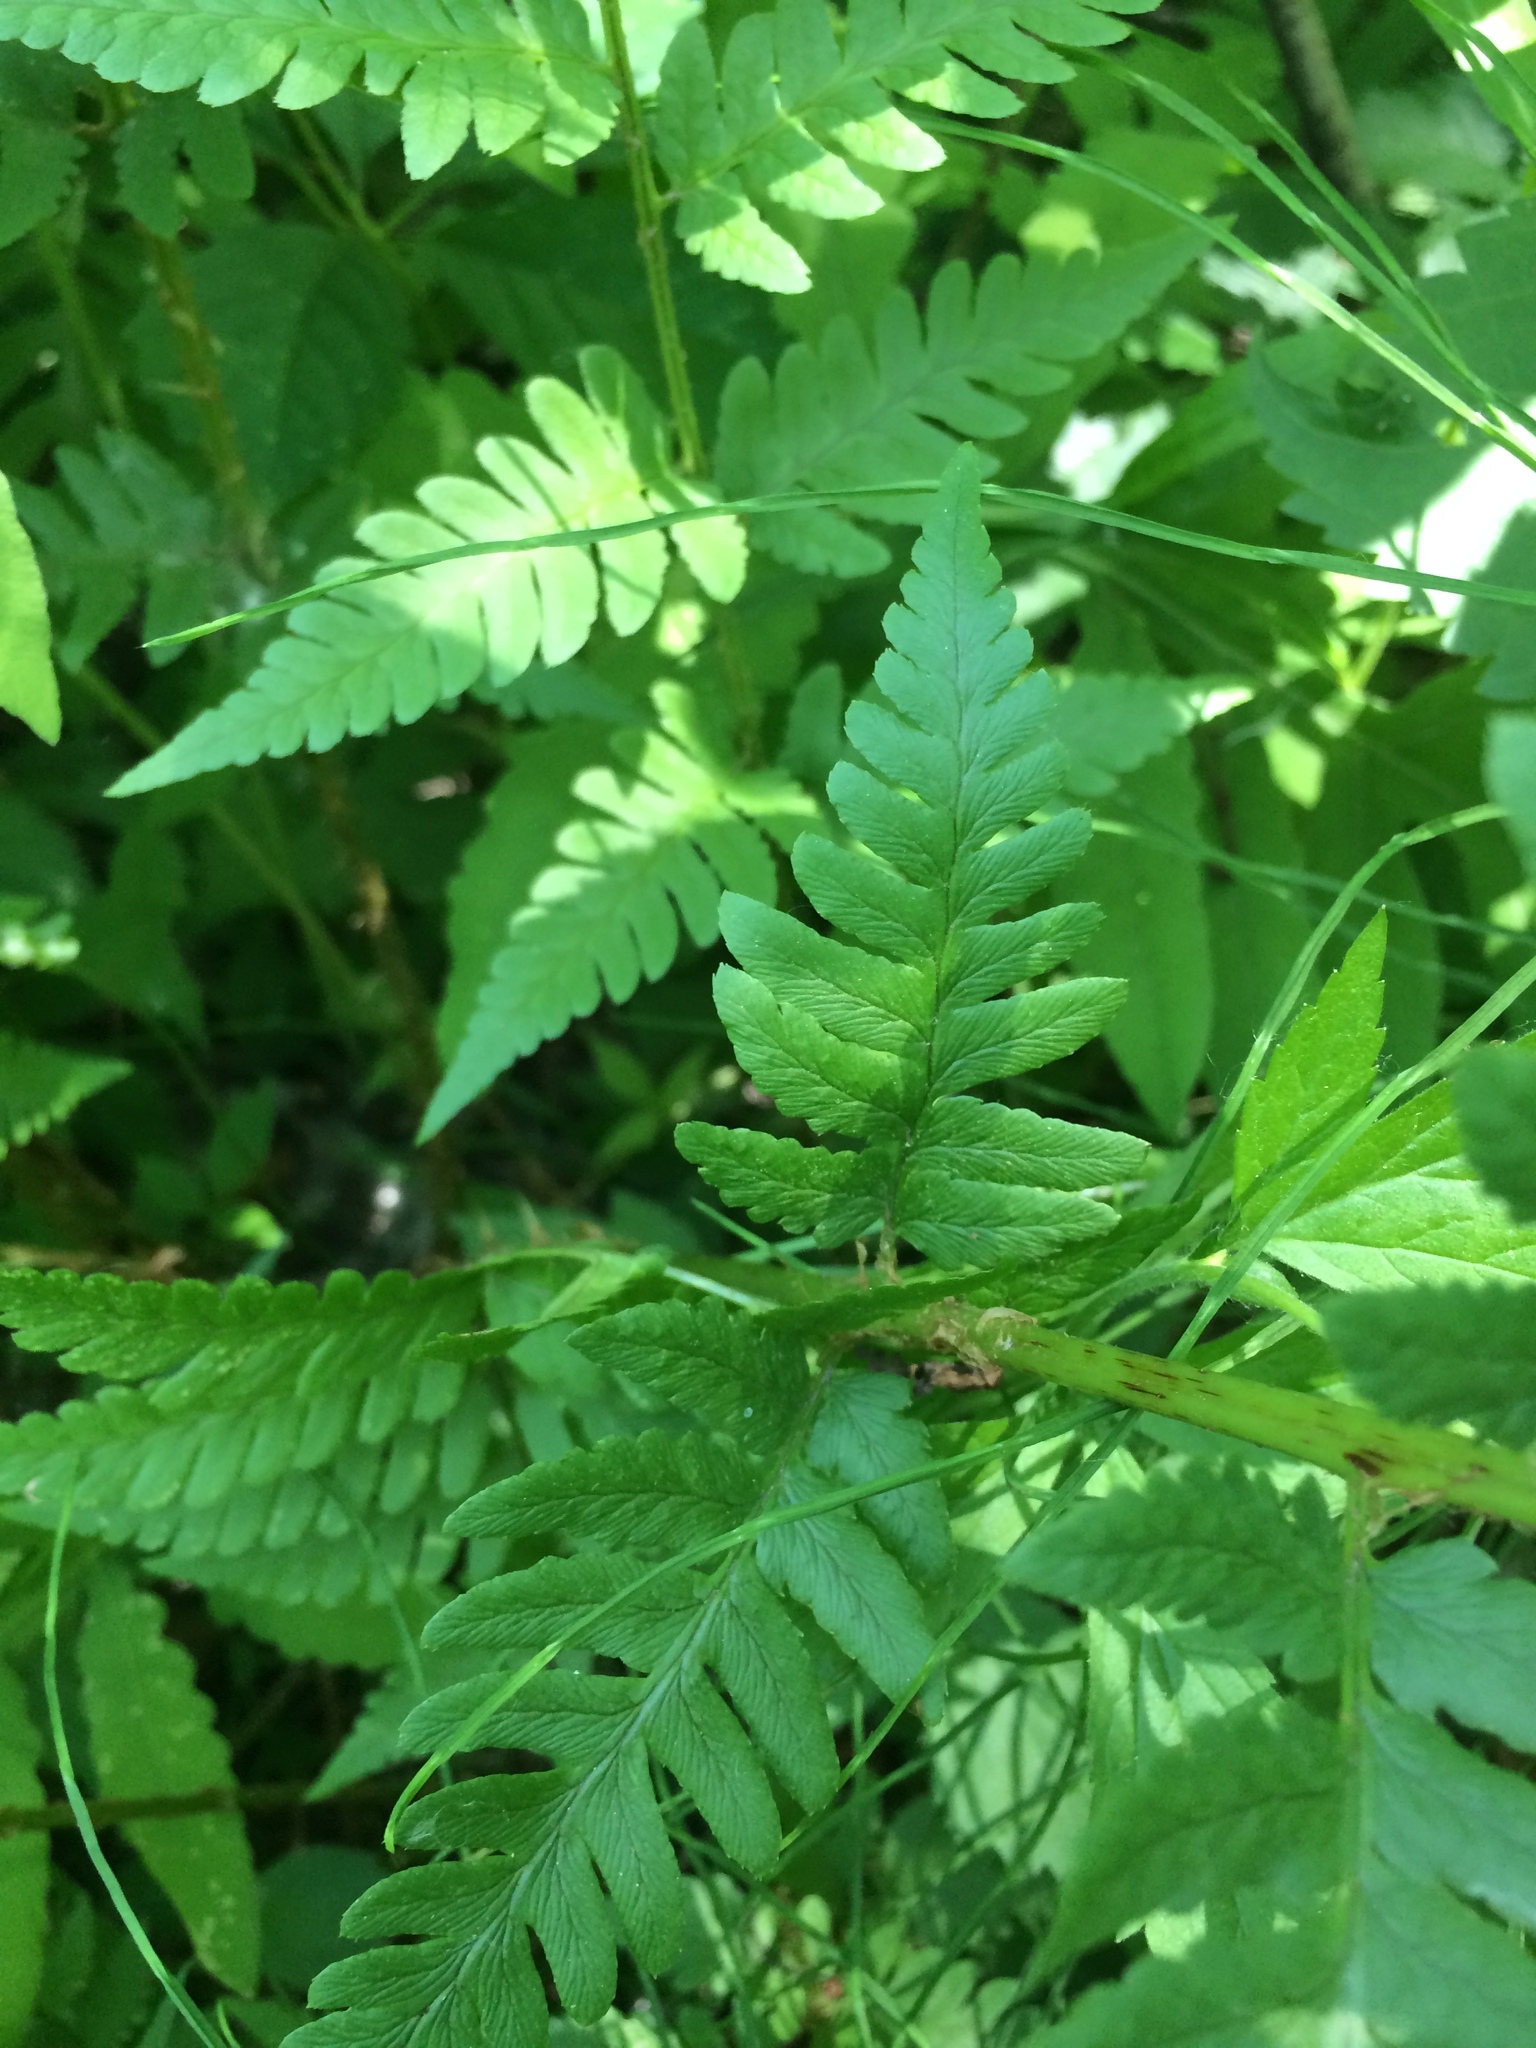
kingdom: Plantae
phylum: Tracheophyta
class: Polypodiopsida
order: Polypodiales
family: Dryopteridaceae
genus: Dryopteris
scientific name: Dryopteris cristata
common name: Crested wood fern
